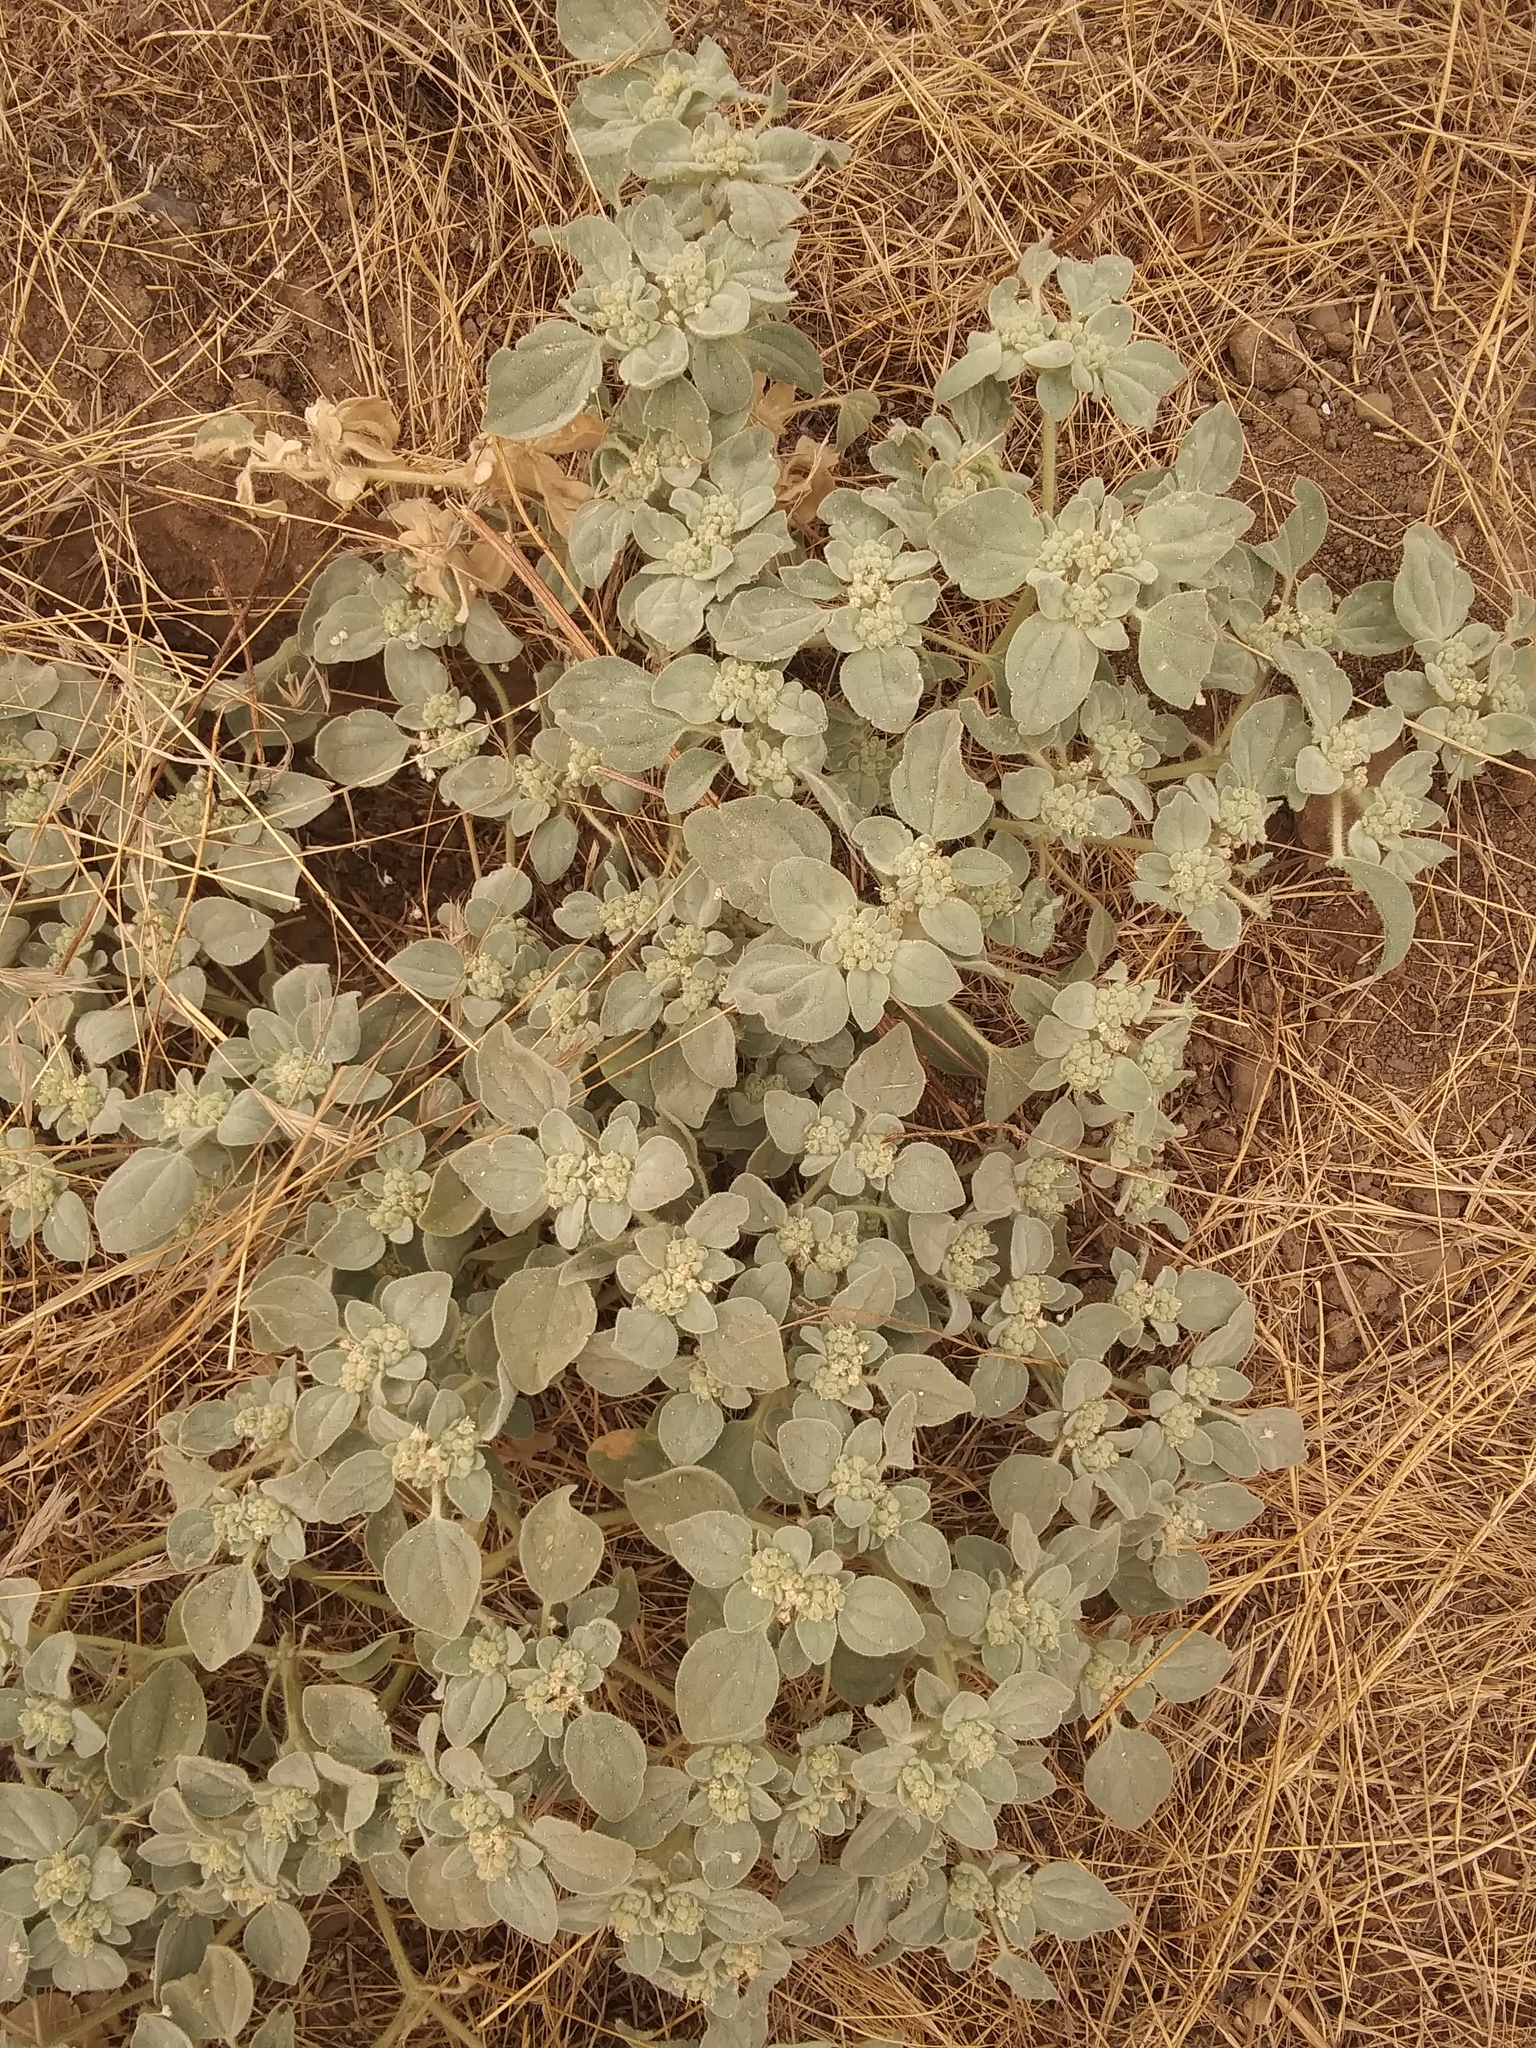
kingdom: Plantae
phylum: Tracheophyta
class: Magnoliopsida
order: Malpighiales
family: Euphorbiaceae
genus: Croton
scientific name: Croton setiger
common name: Dove weed
